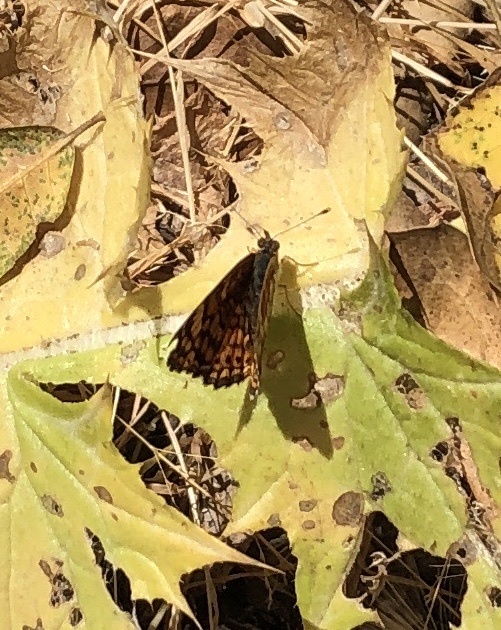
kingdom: Animalia
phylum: Arthropoda
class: Insecta
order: Lepidoptera
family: Nymphalidae
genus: Eresia
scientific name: Eresia aveyrona
